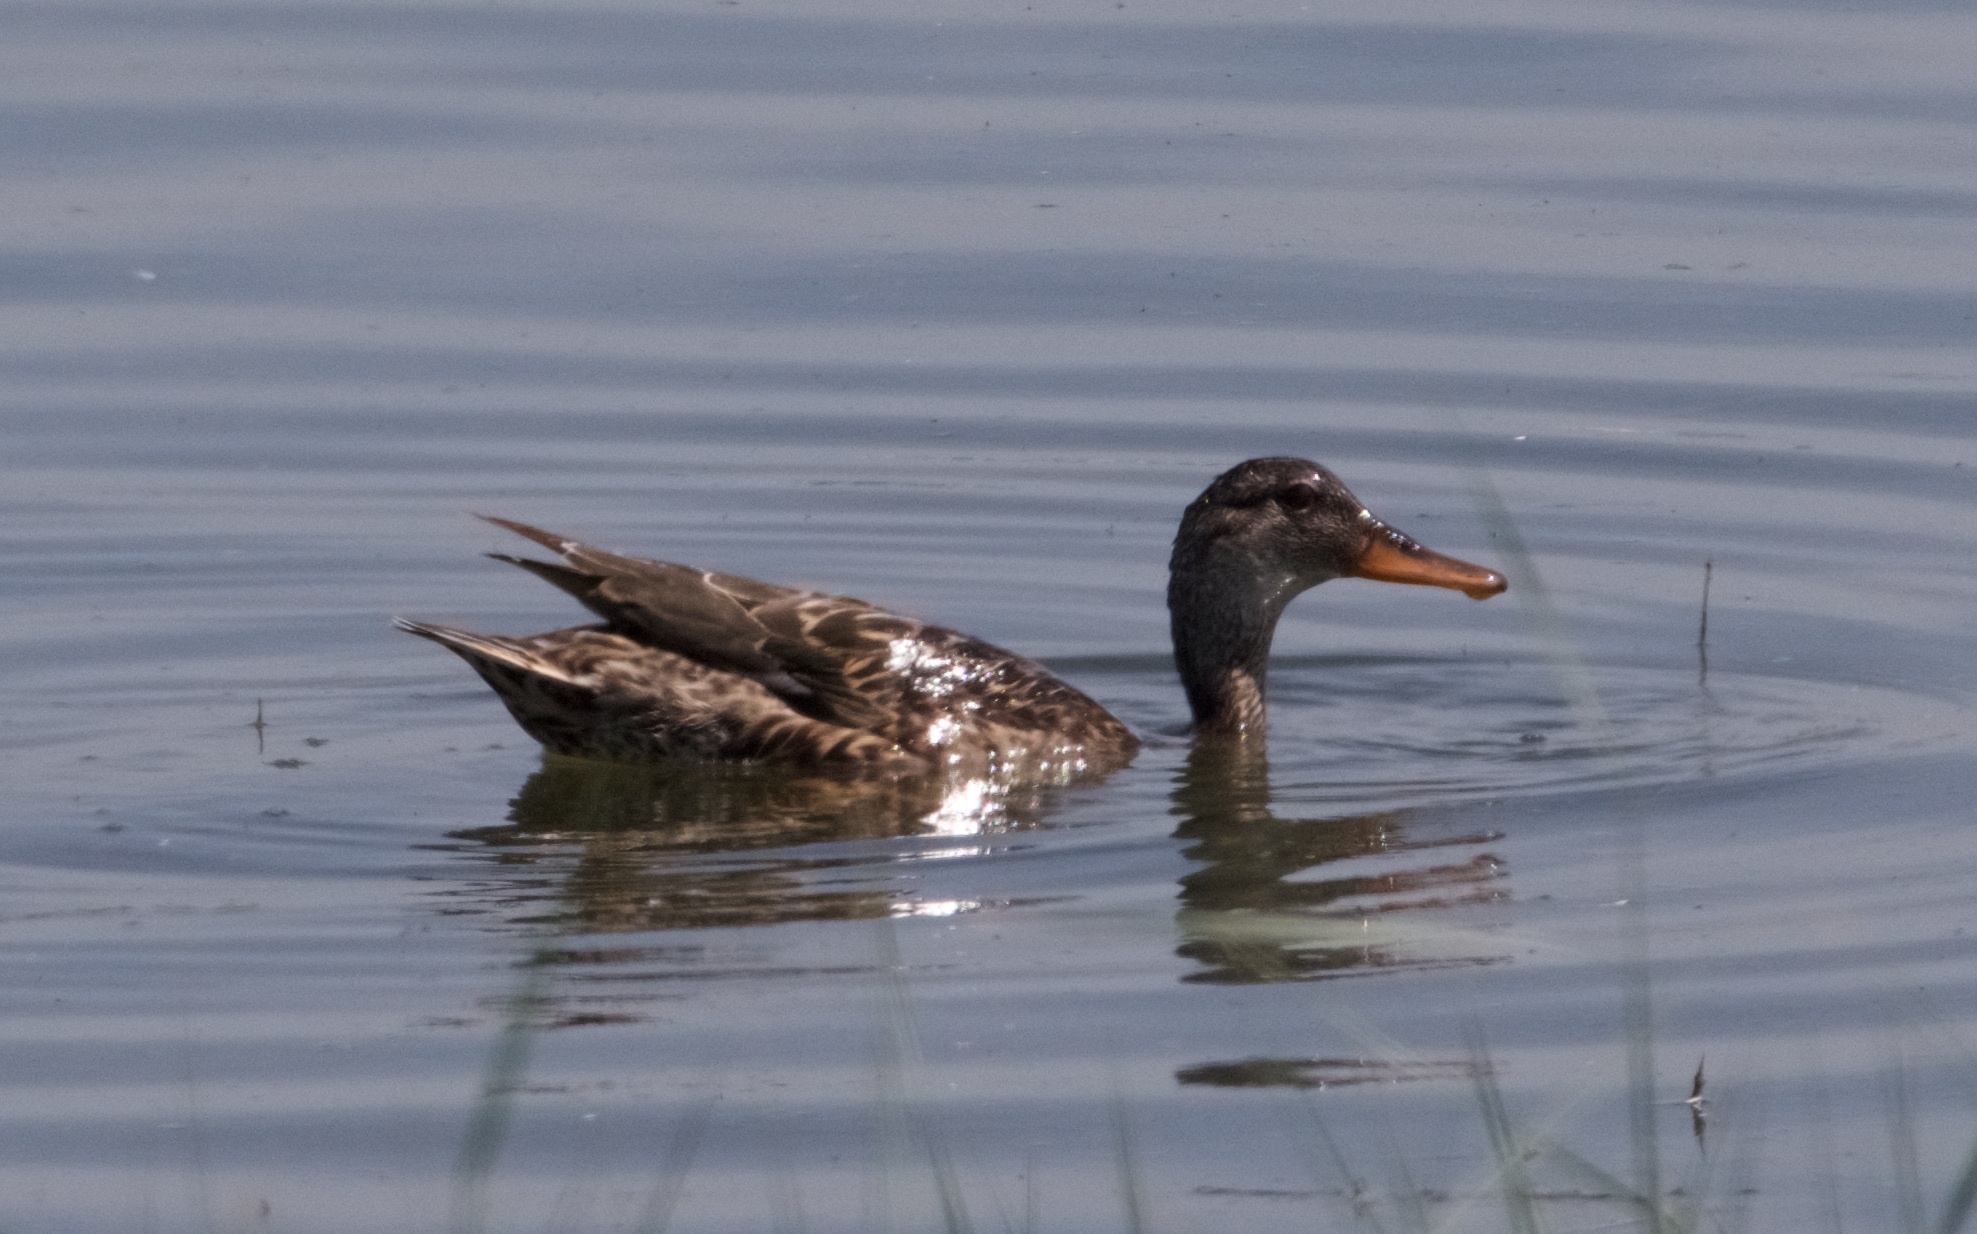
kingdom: Animalia
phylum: Chordata
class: Aves
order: Anseriformes
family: Anatidae
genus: Anas
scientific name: Anas platyrhynchos
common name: Mallard
